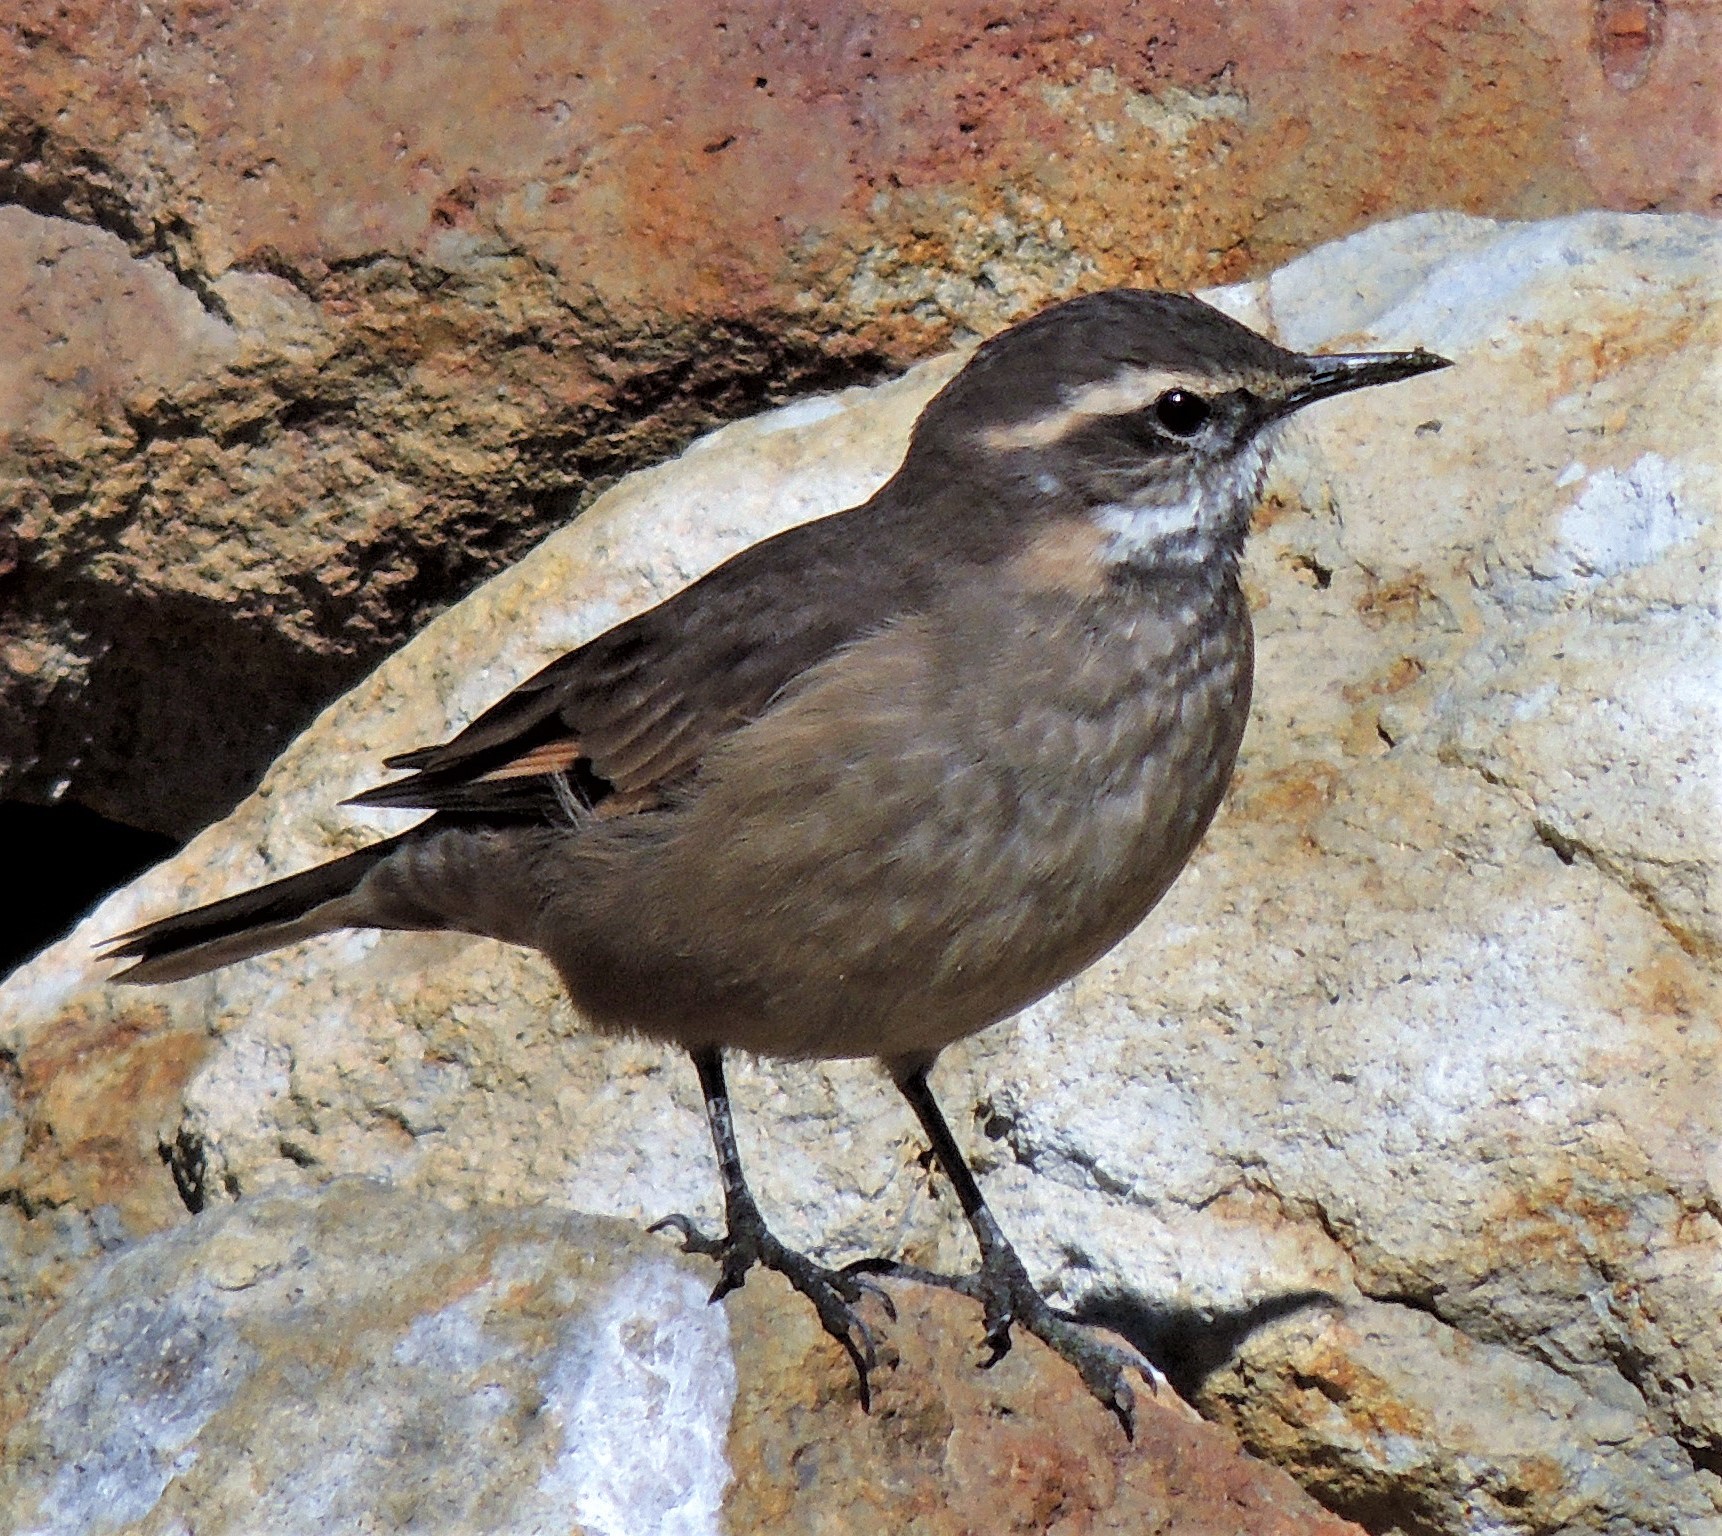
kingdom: Animalia
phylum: Chordata
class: Aves
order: Passeriformes
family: Furnariidae
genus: Cinclodes
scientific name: Cinclodes fuscus
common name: Buff-winged cinclodes
